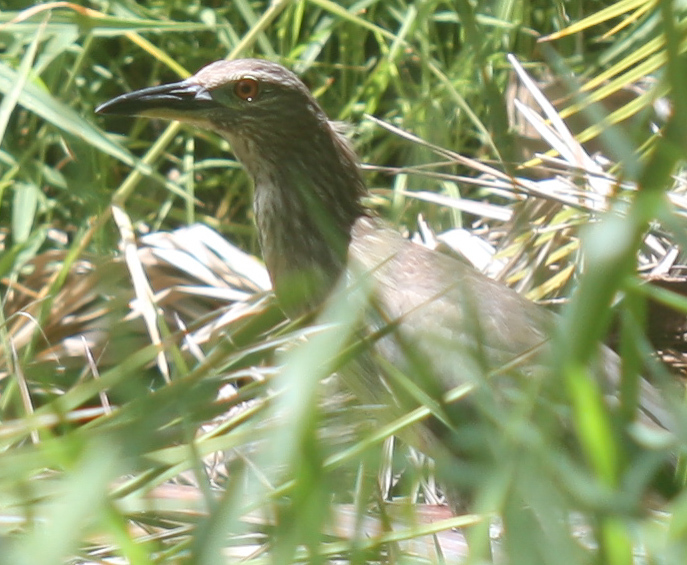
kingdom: Animalia
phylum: Chordata
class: Aves
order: Pelecaniformes
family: Ardeidae
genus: Nycticorax
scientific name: Nycticorax nycticorax
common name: Black-crowned night heron
